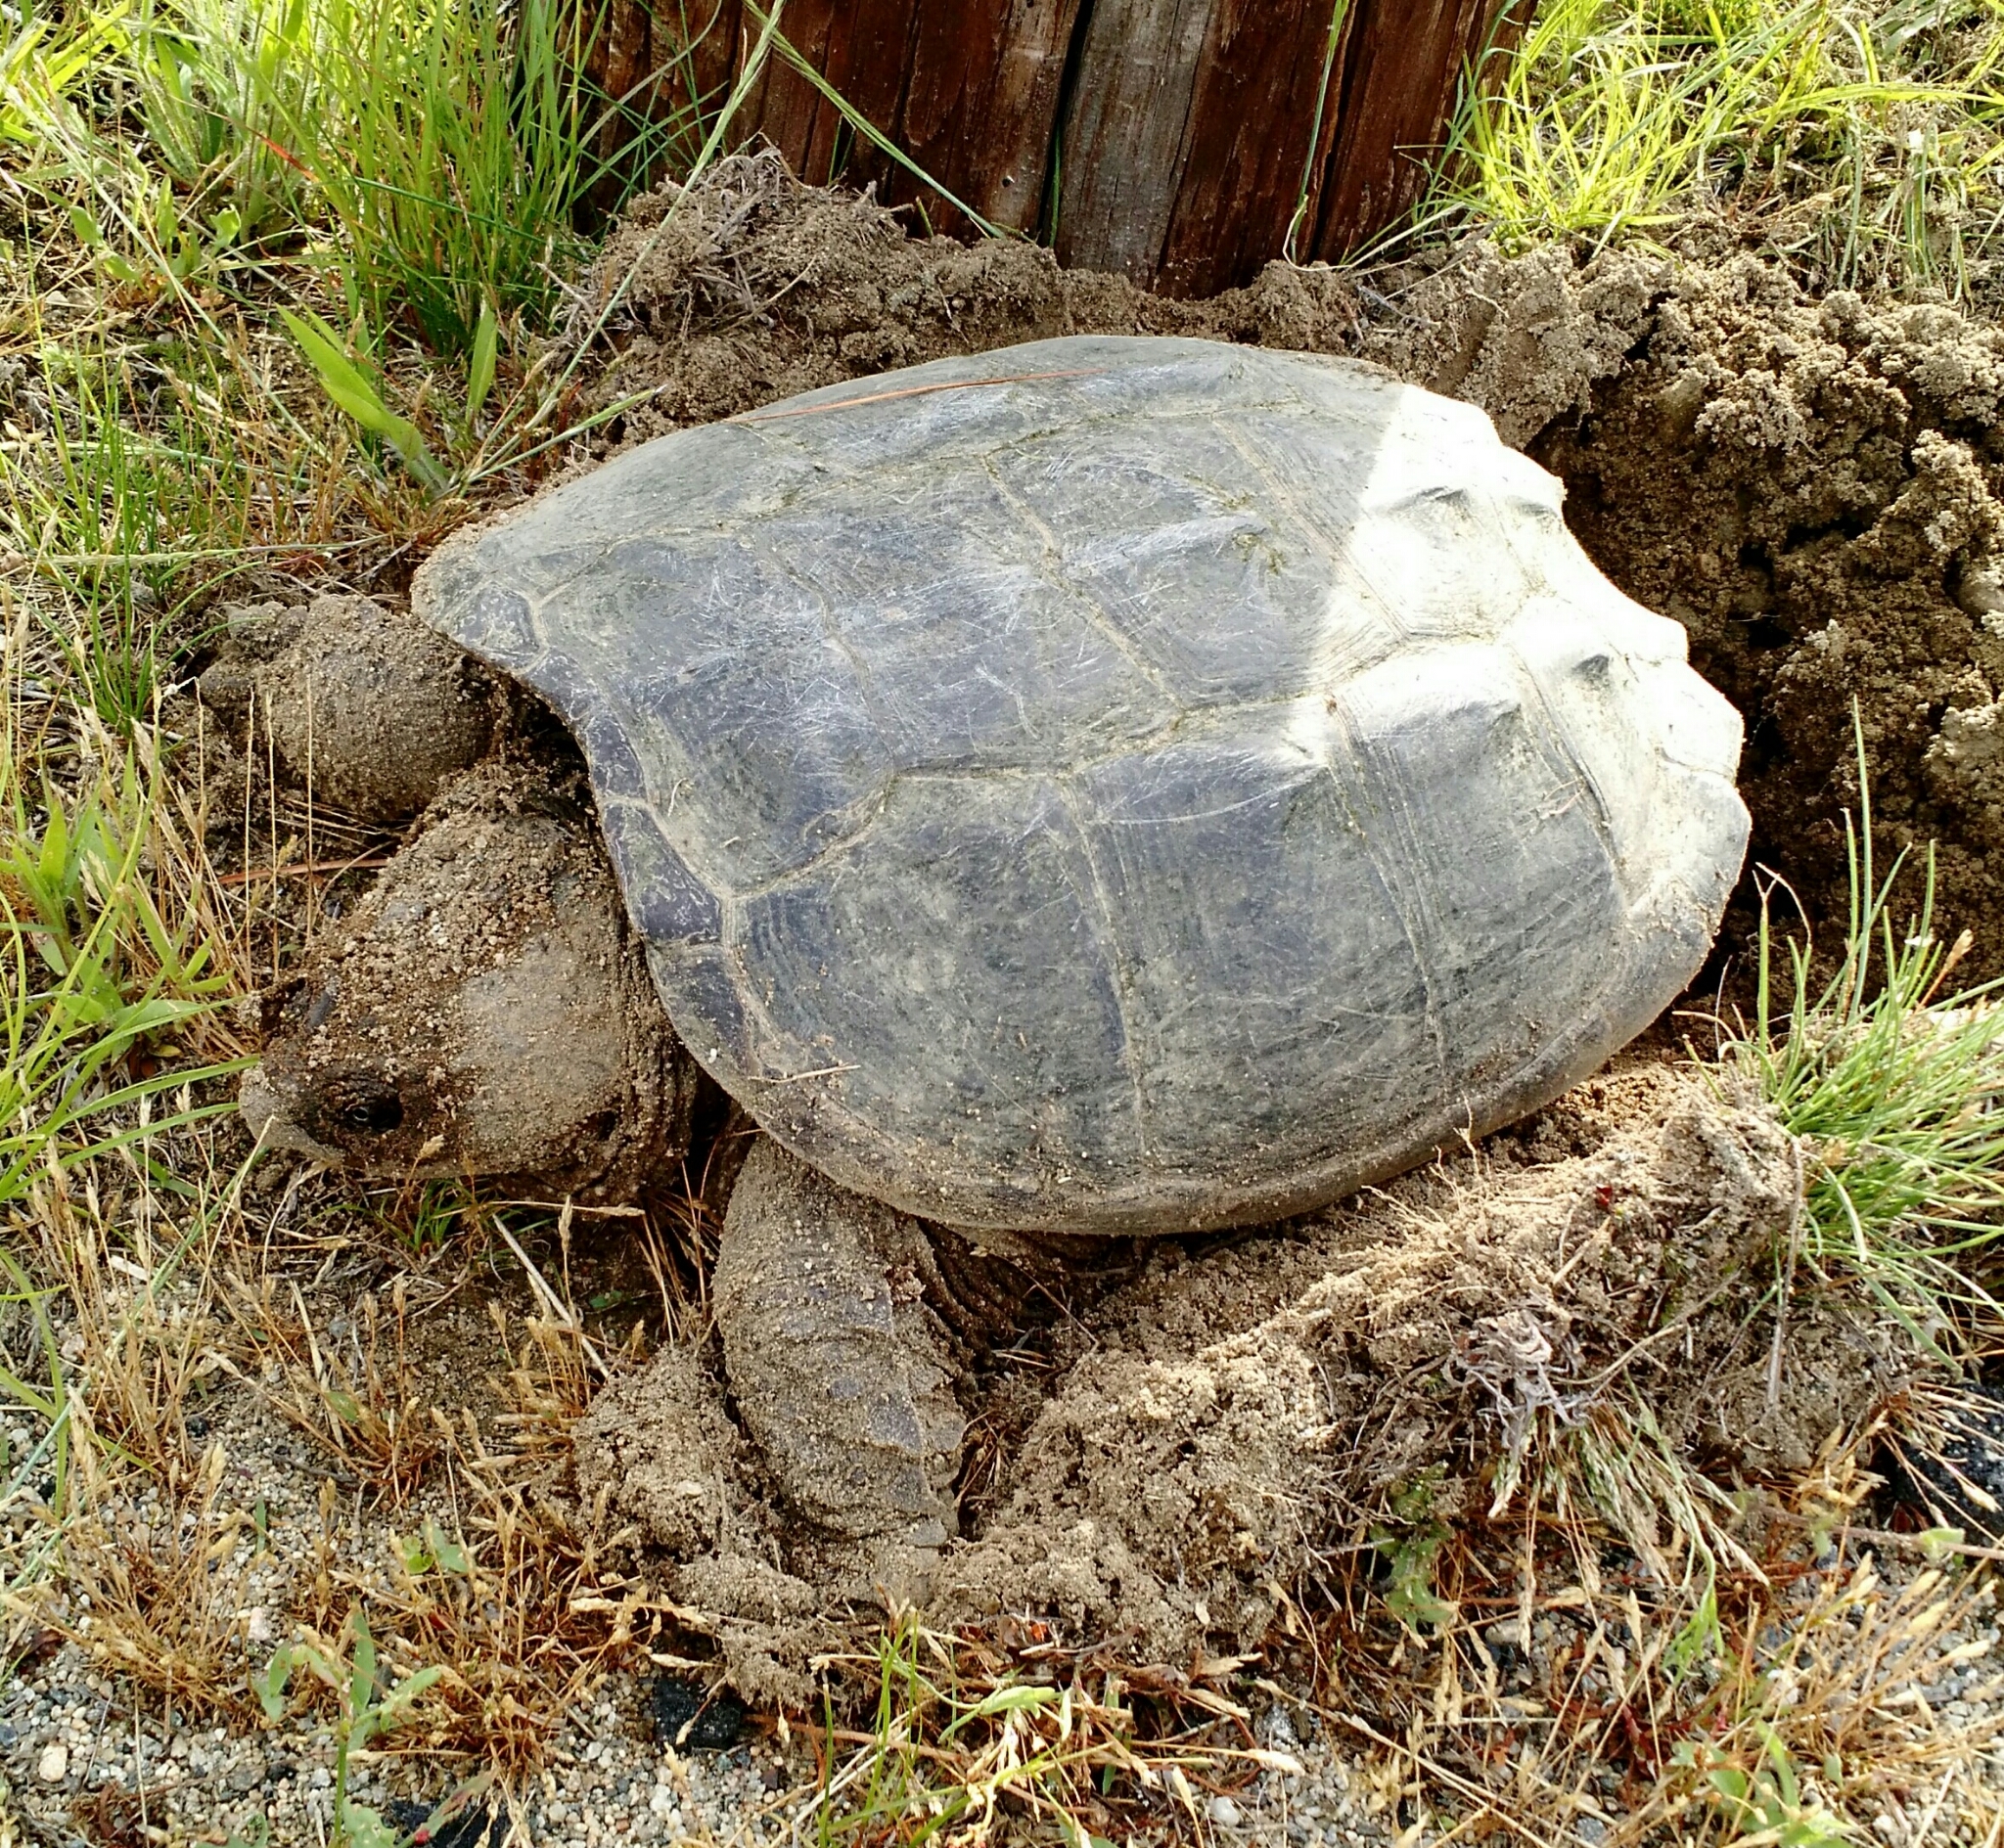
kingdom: Animalia
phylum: Chordata
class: Testudines
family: Chelydridae
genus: Chelydra
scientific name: Chelydra serpentina
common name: Common snapping turtle
